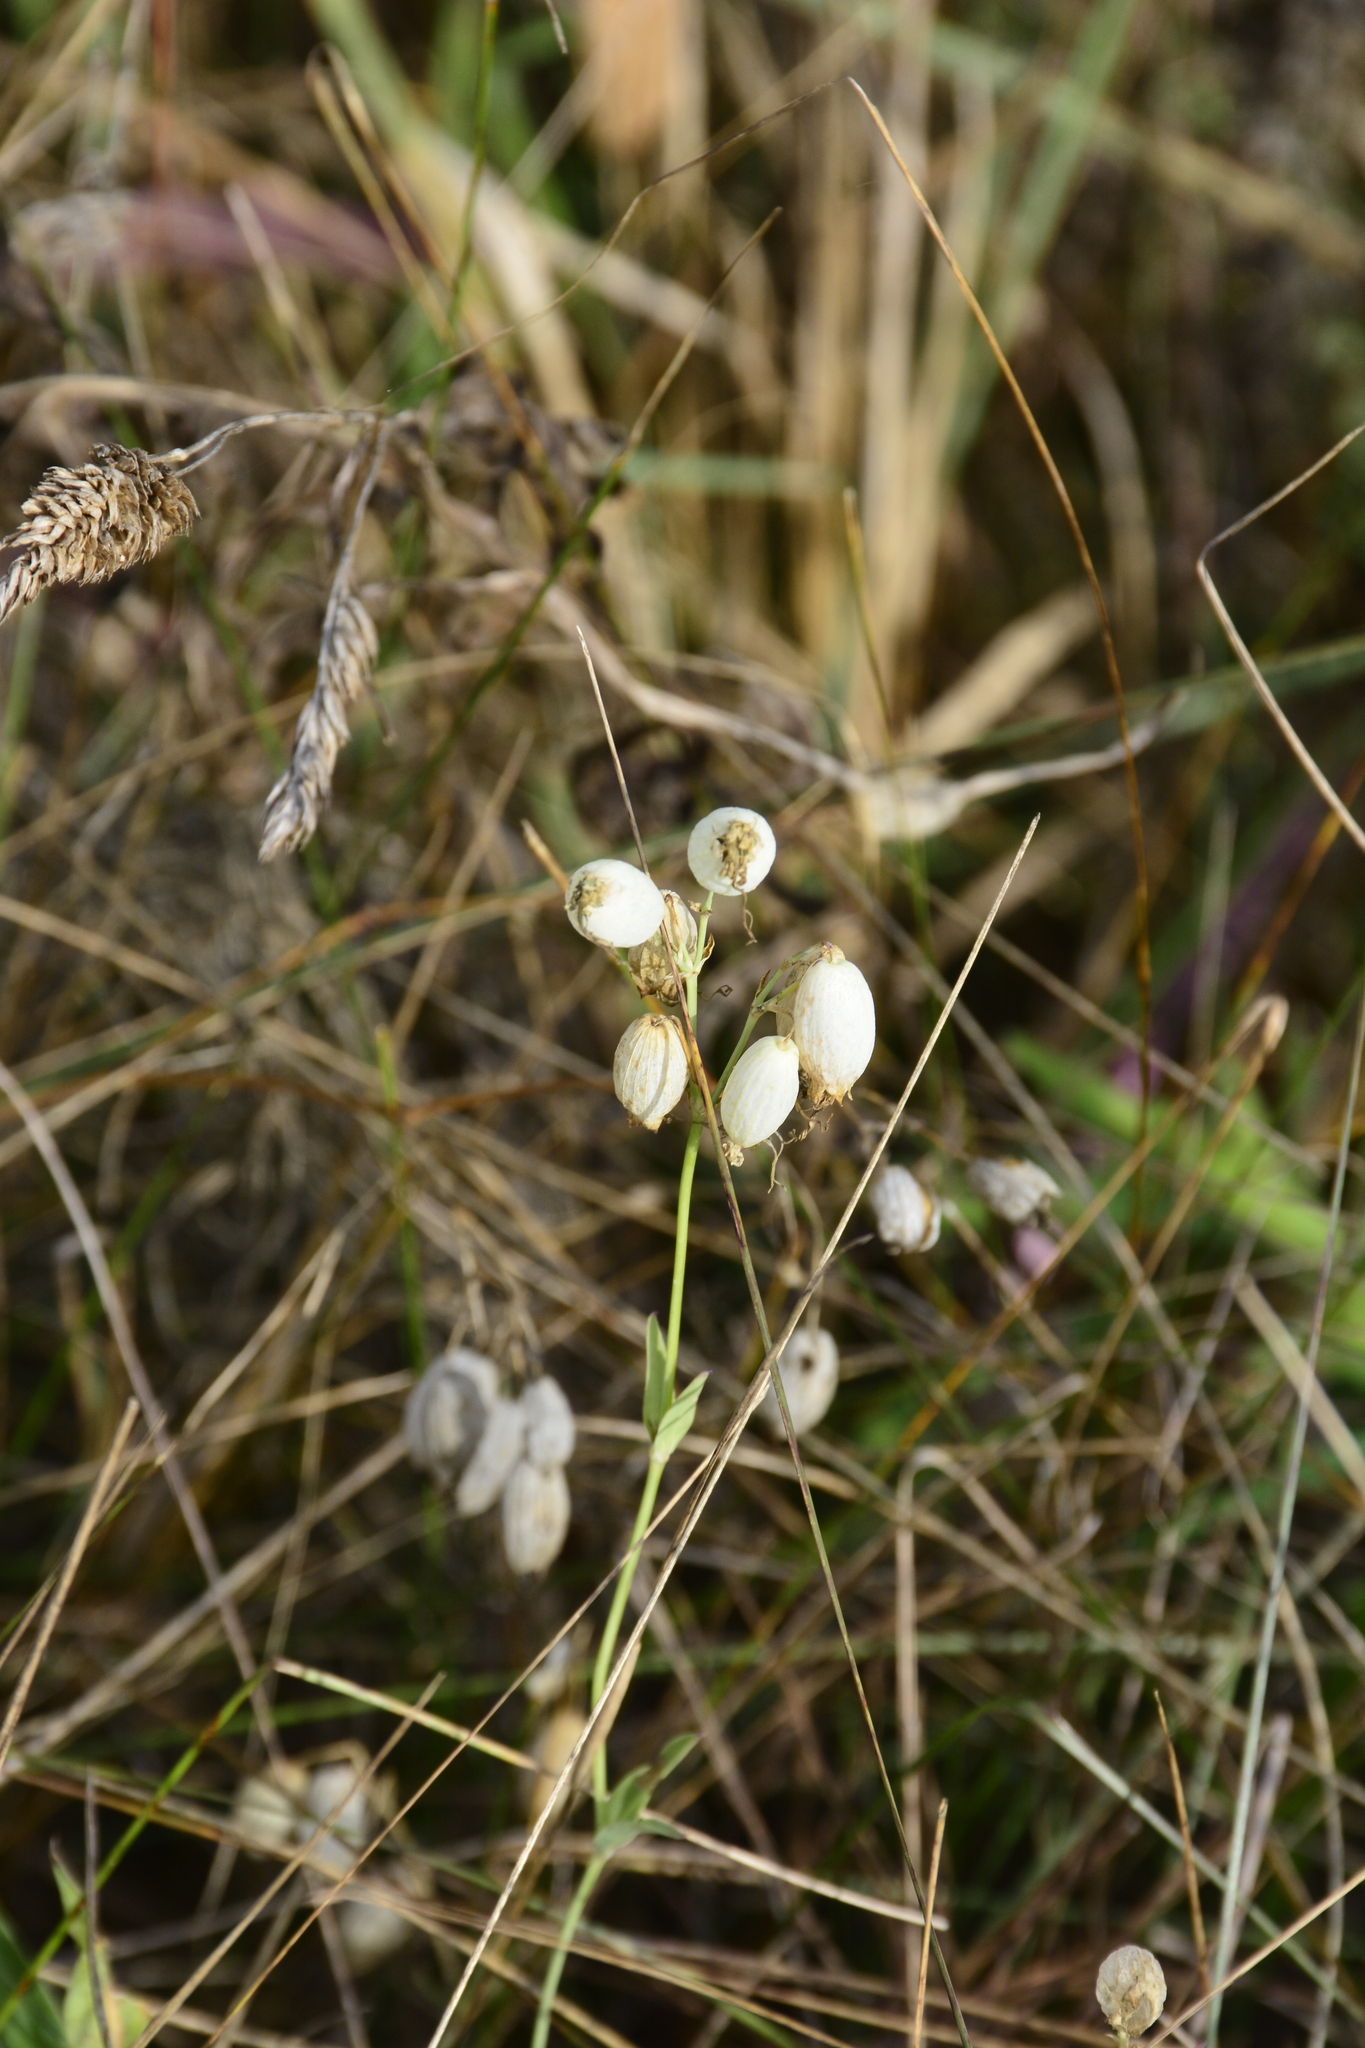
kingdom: Plantae
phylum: Tracheophyta
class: Magnoliopsida
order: Caryophyllales
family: Caryophyllaceae
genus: Silene
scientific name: Silene vulgaris
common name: Bladder campion
